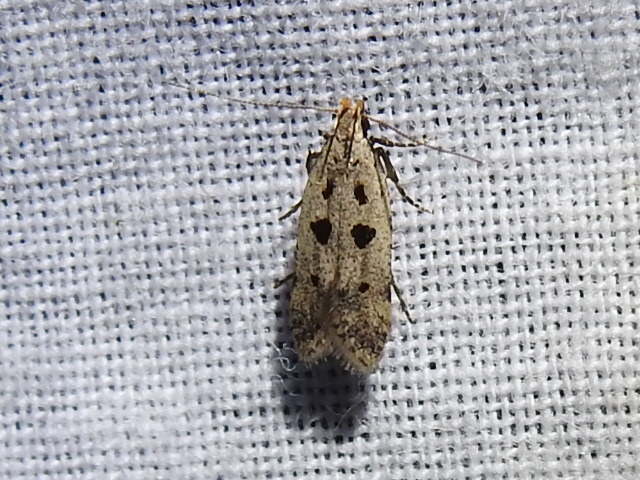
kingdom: Animalia
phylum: Arthropoda
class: Insecta
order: Lepidoptera
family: Gelechiidae
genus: Deltophora
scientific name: Deltophora sella
